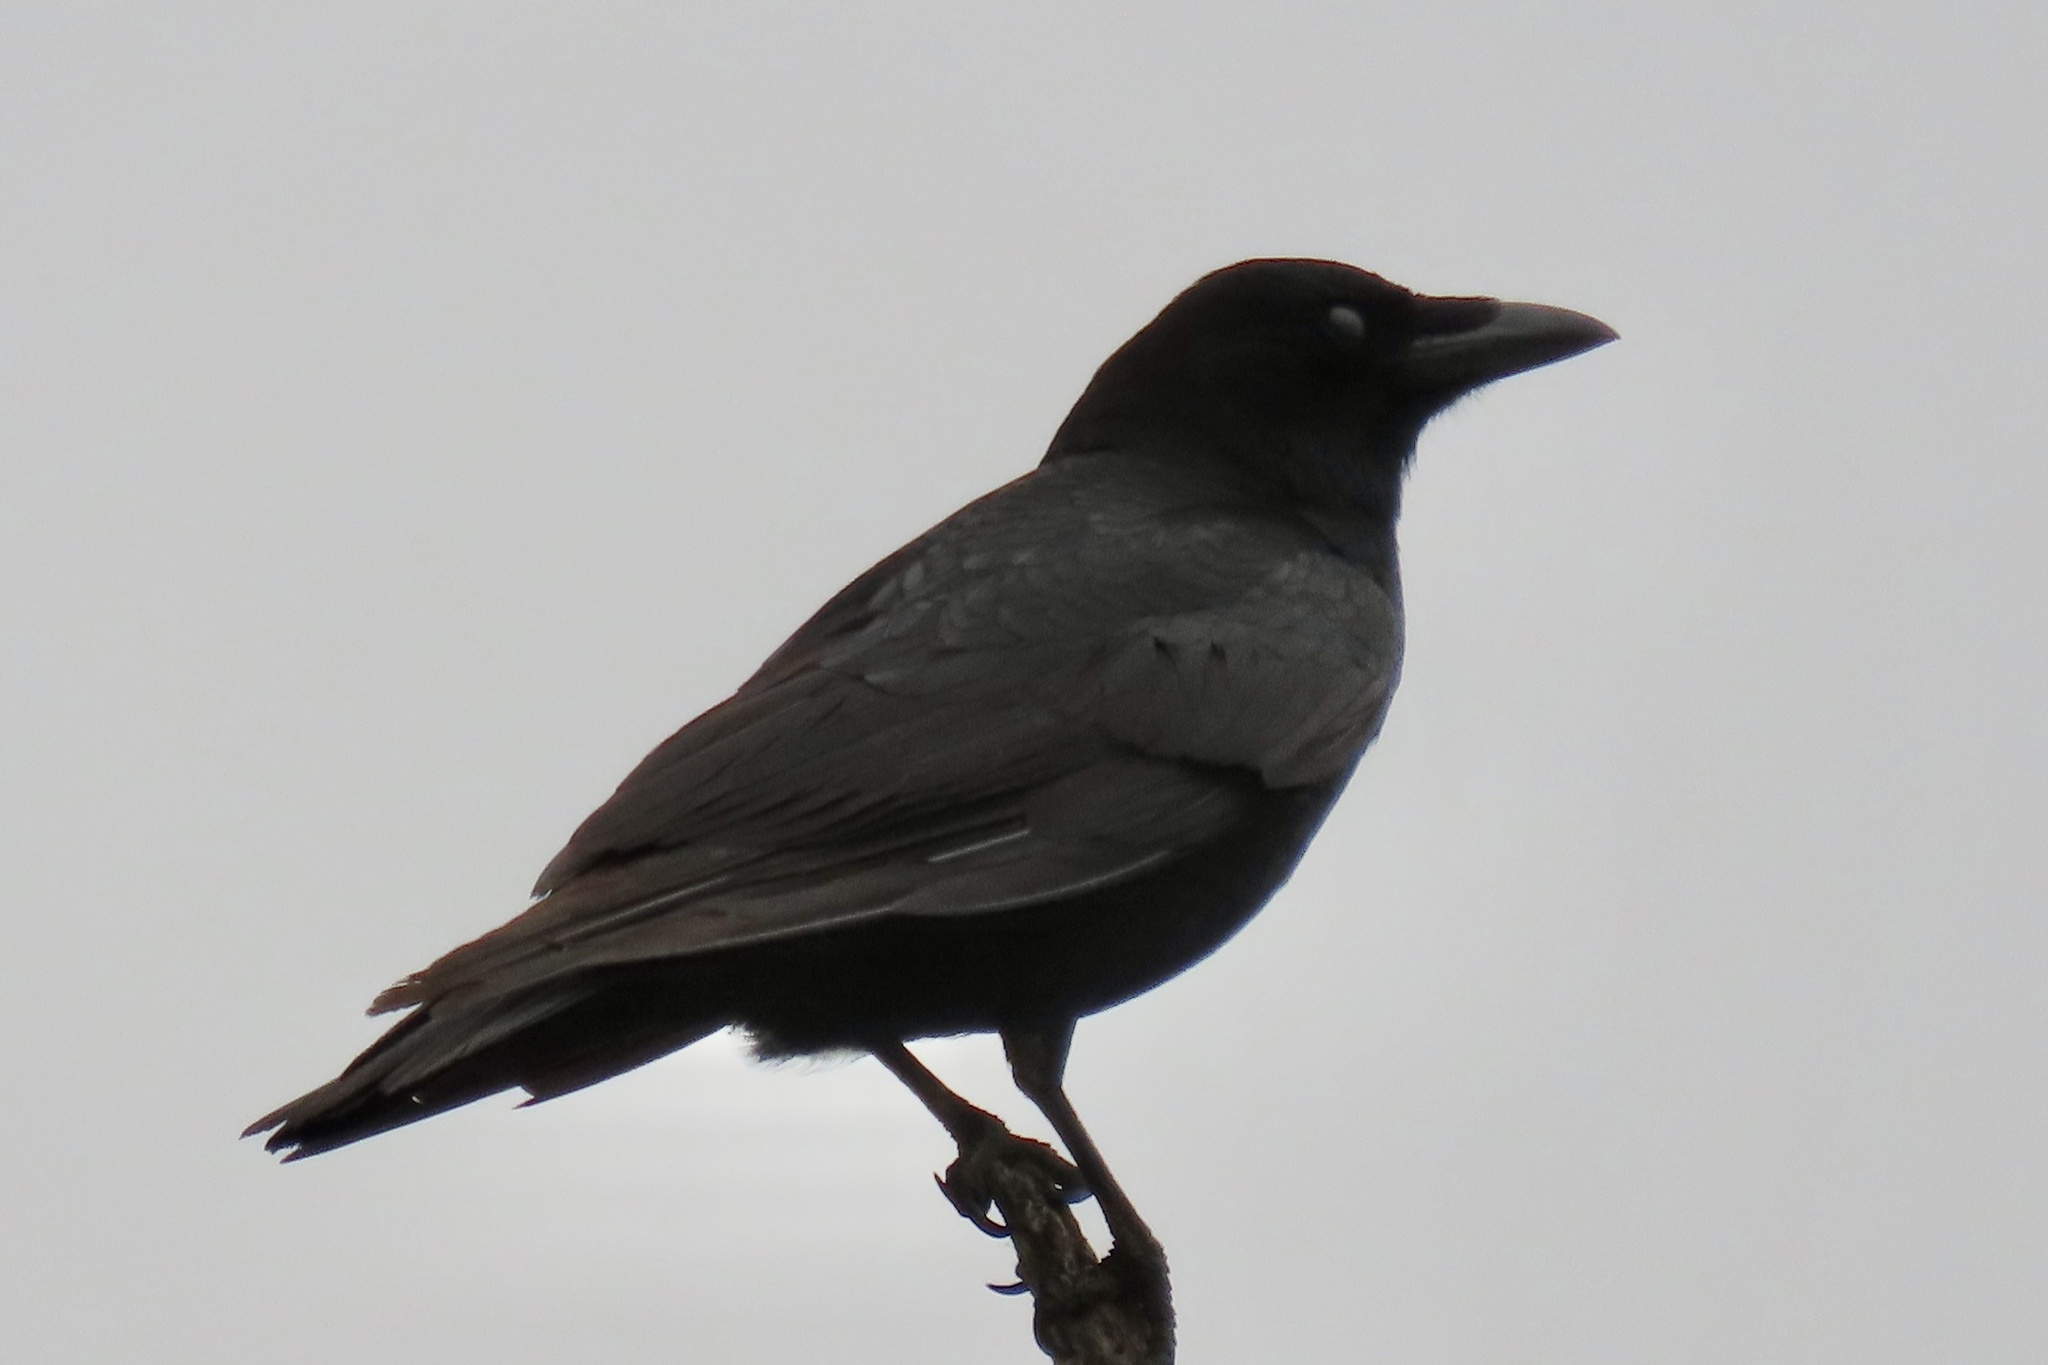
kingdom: Animalia
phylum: Chordata
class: Aves
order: Passeriformes
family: Corvidae
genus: Corvus
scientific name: Corvus brachyrhynchos
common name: American crow
